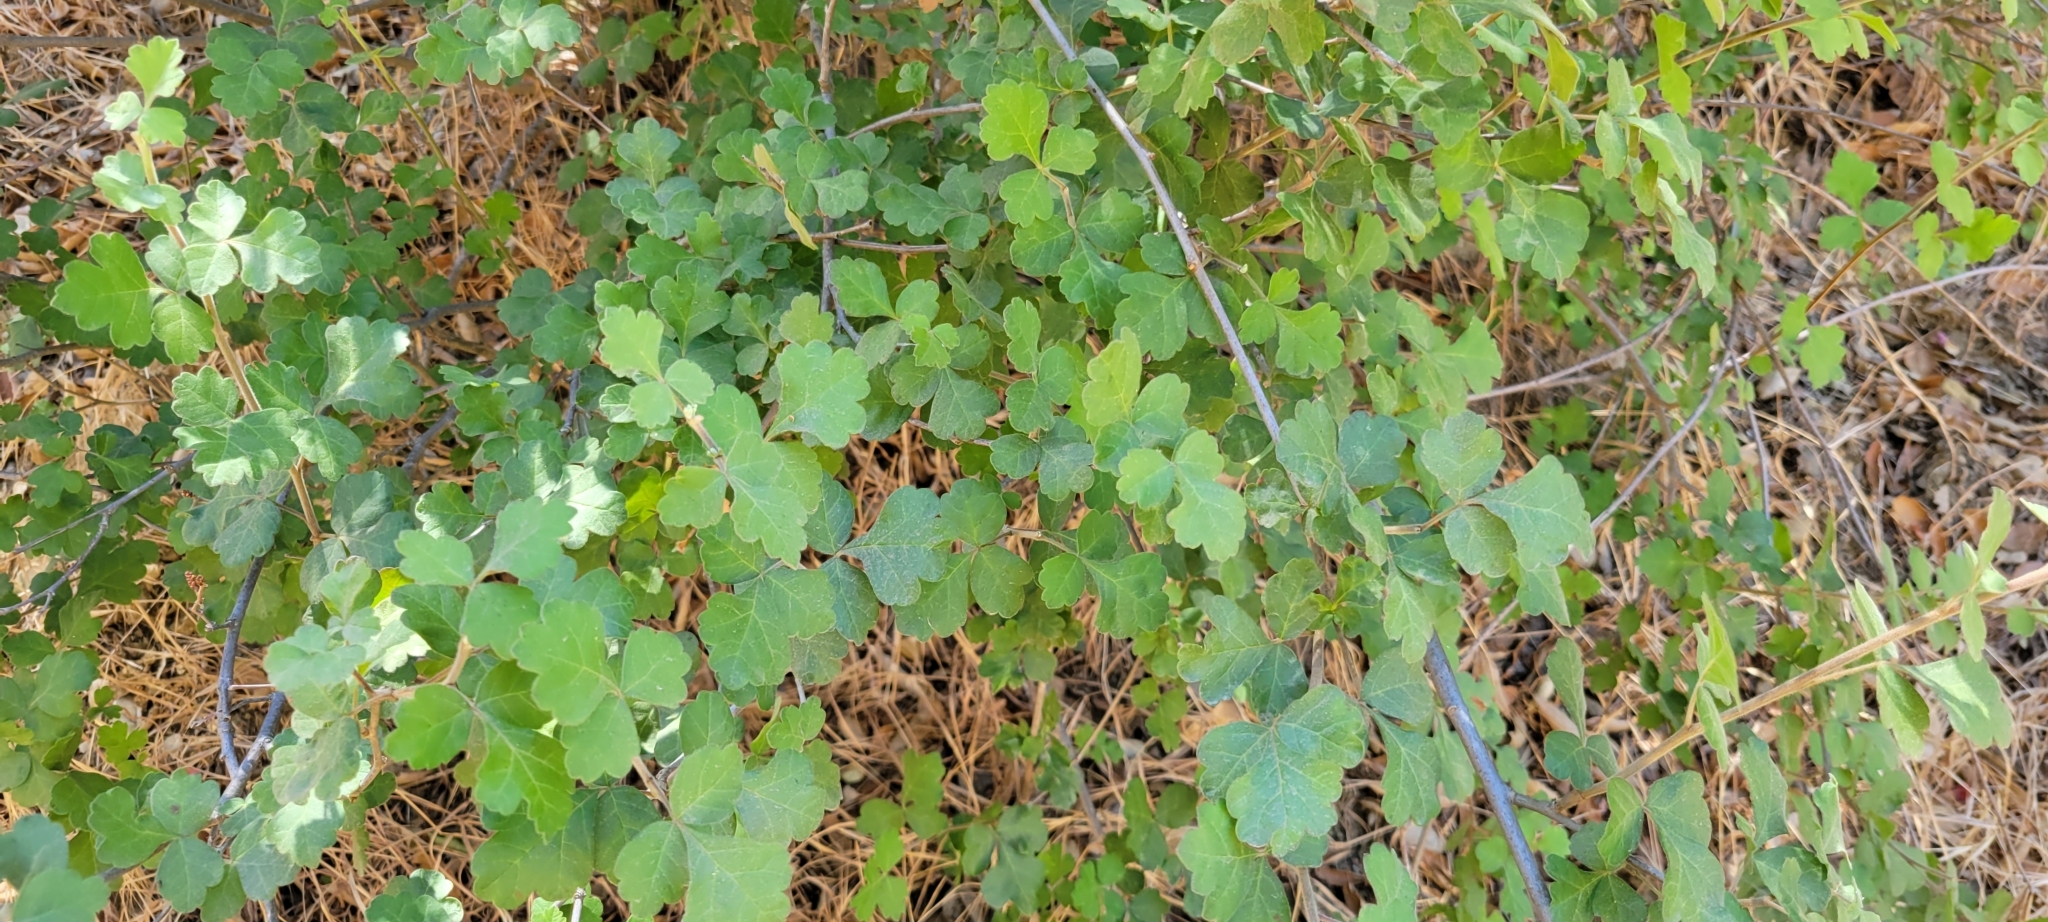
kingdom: Plantae
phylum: Tracheophyta
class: Magnoliopsida
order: Sapindales
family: Anacardiaceae
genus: Rhus
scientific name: Rhus trilobata
